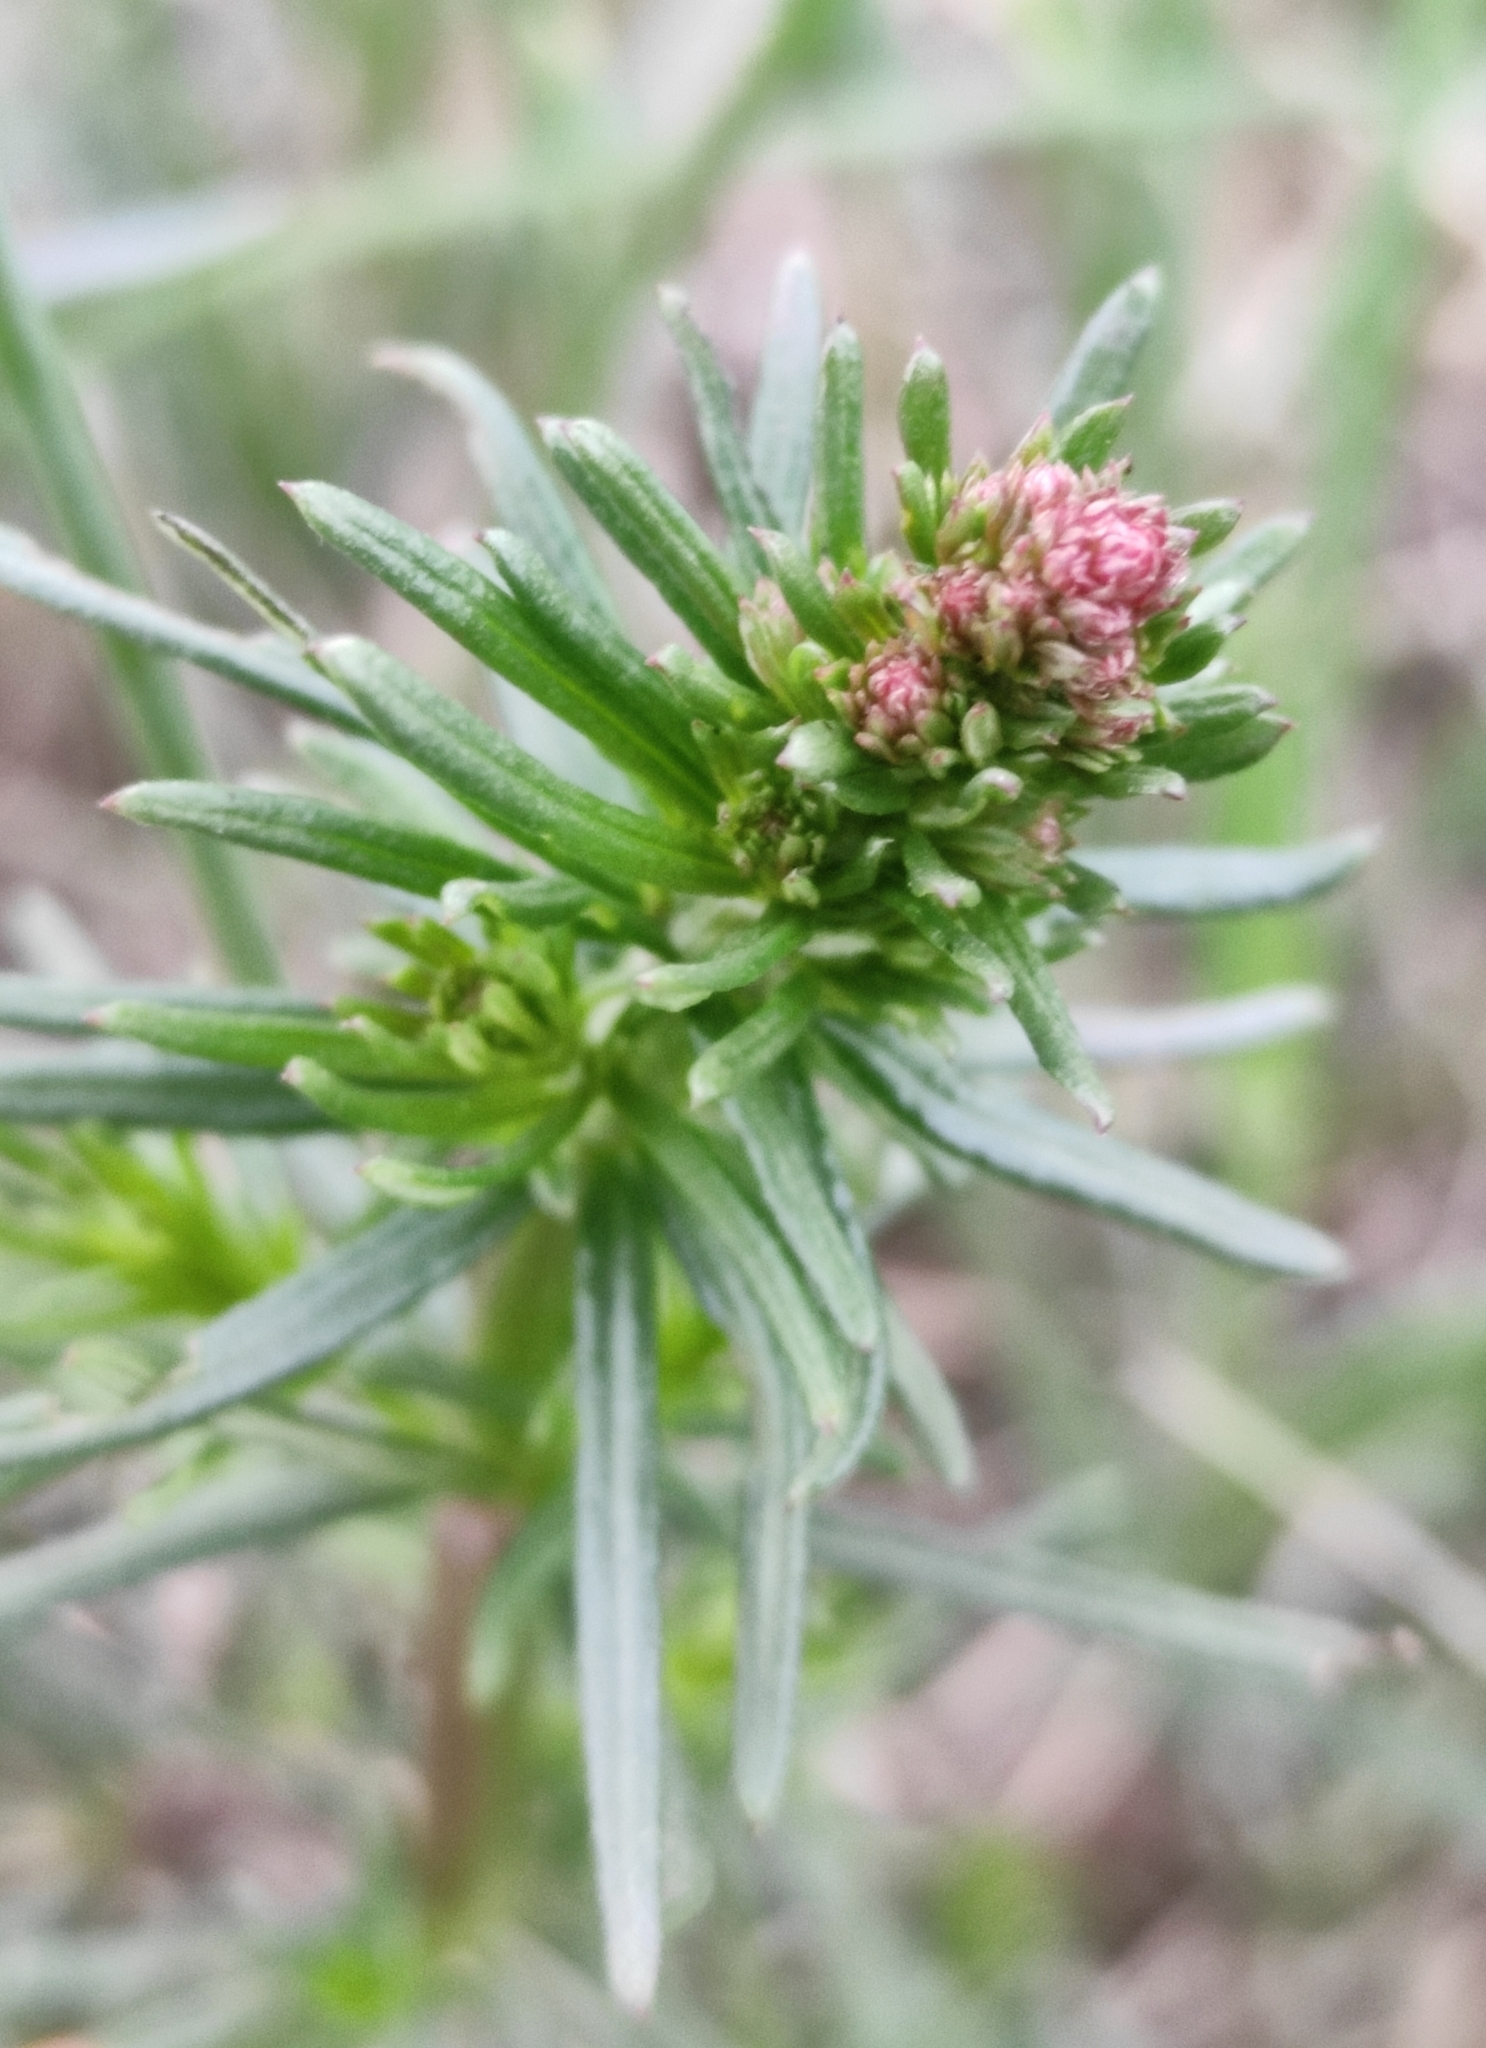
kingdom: Plantae
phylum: Tracheophyta
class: Magnoliopsida
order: Gentianales
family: Rubiaceae
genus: Galium
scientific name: Galium verum
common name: Lady's bedstraw
